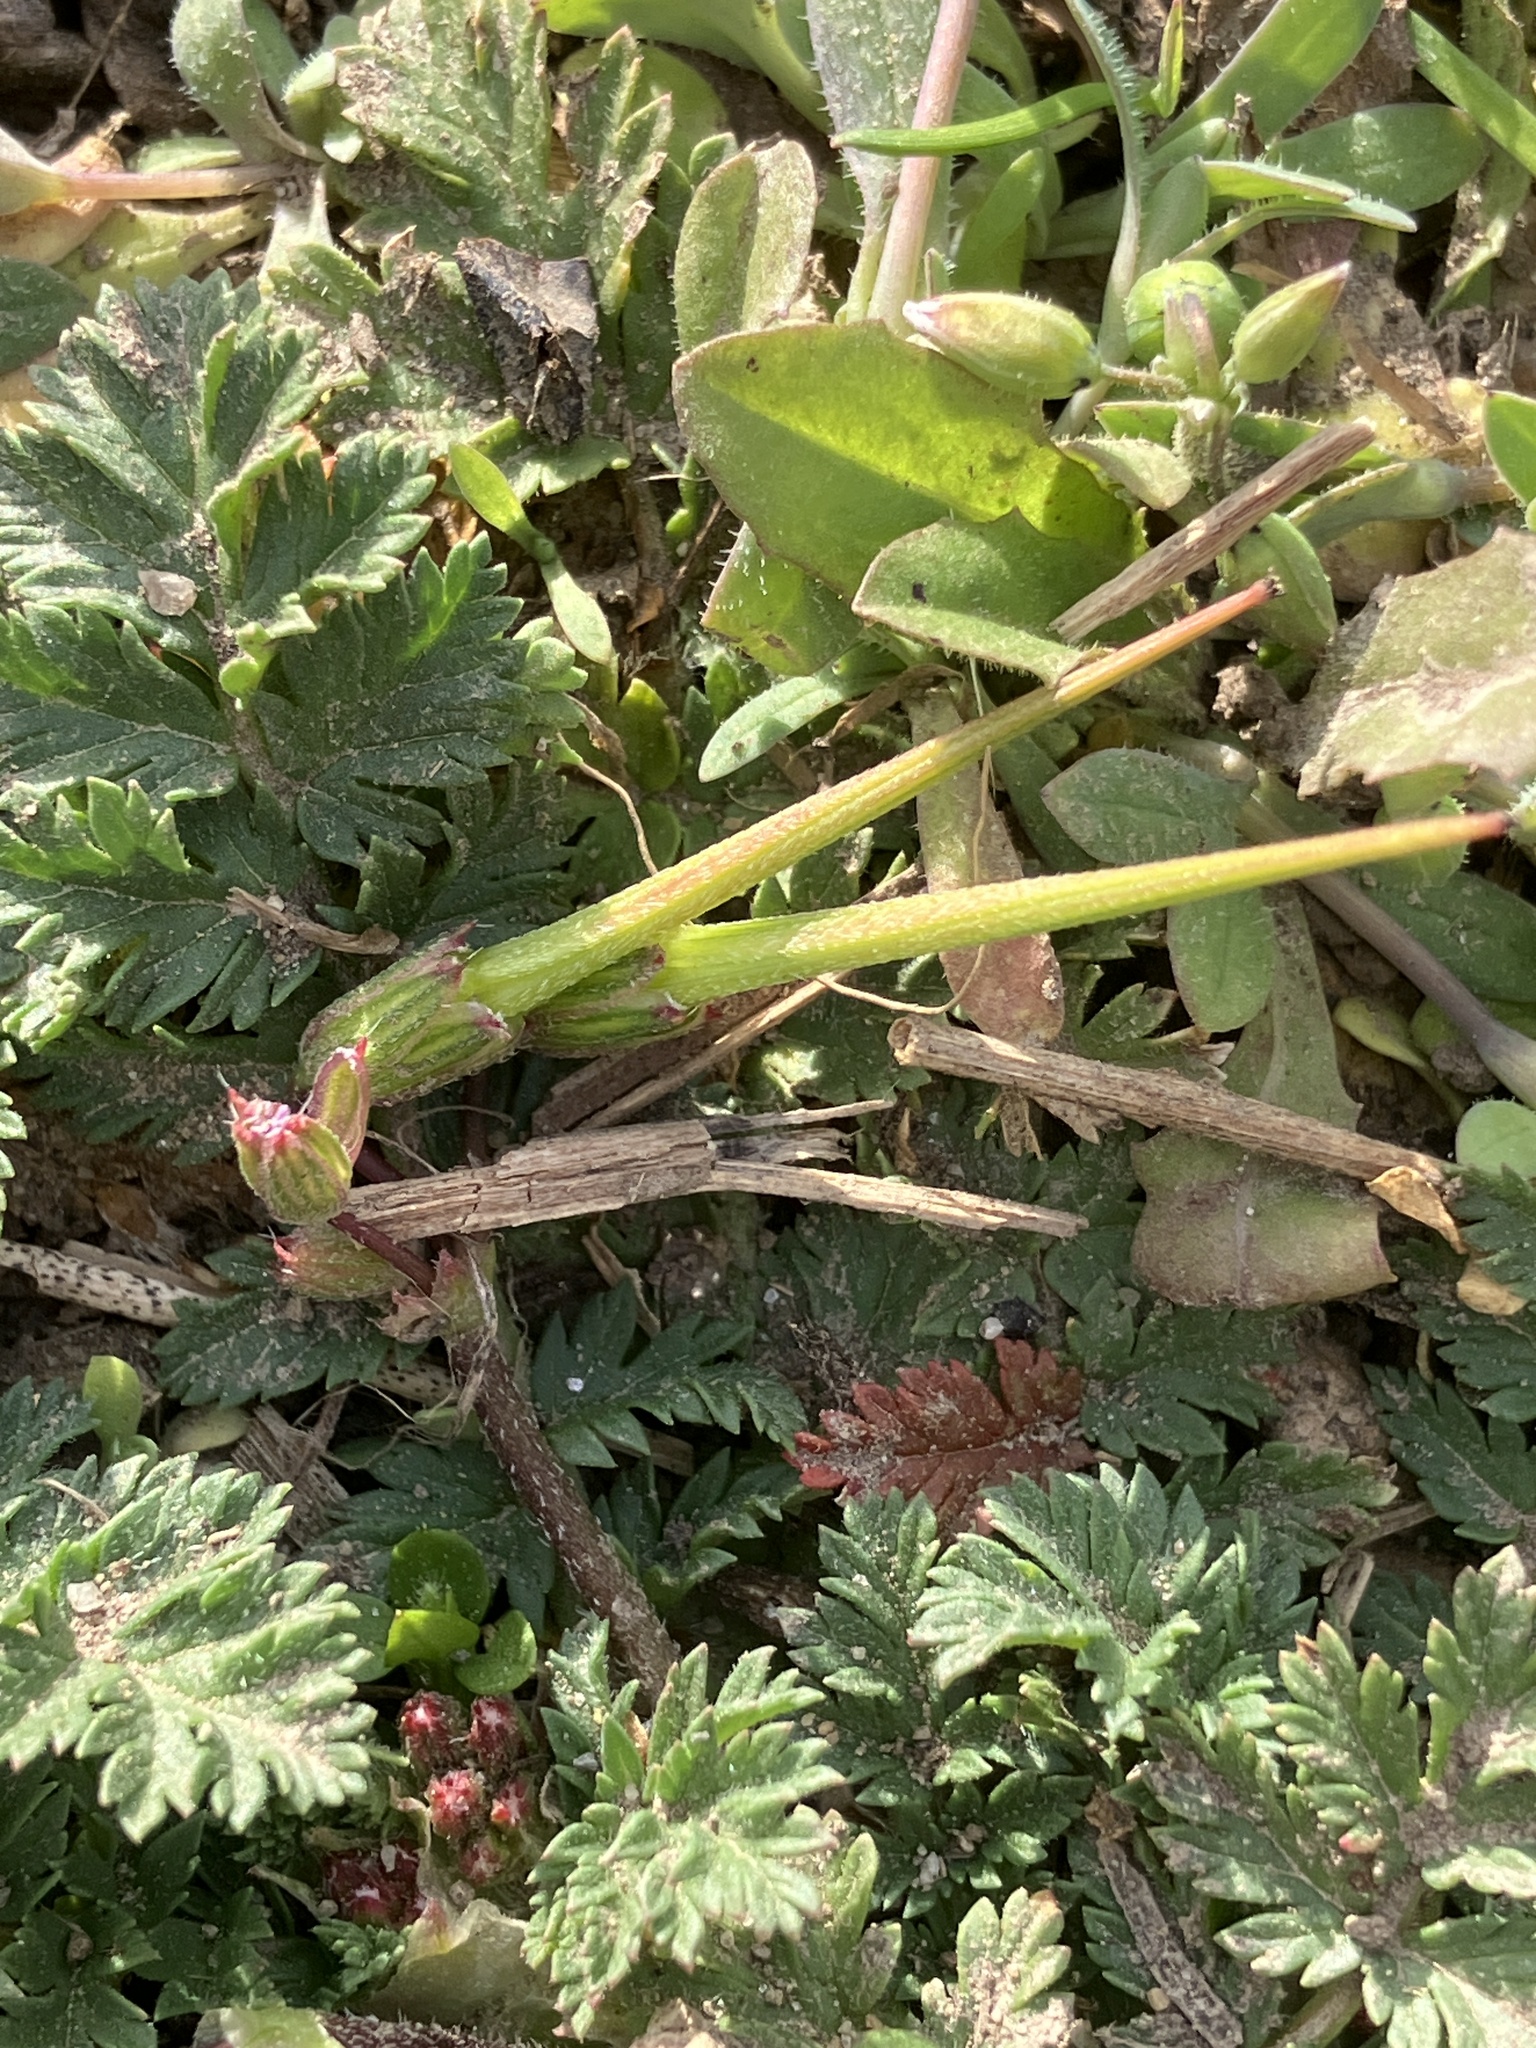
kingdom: Plantae
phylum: Tracheophyta
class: Magnoliopsida
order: Geraniales
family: Geraniaceae
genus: Erodium
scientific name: Erodium cicutarium
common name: Common stork's-bill
